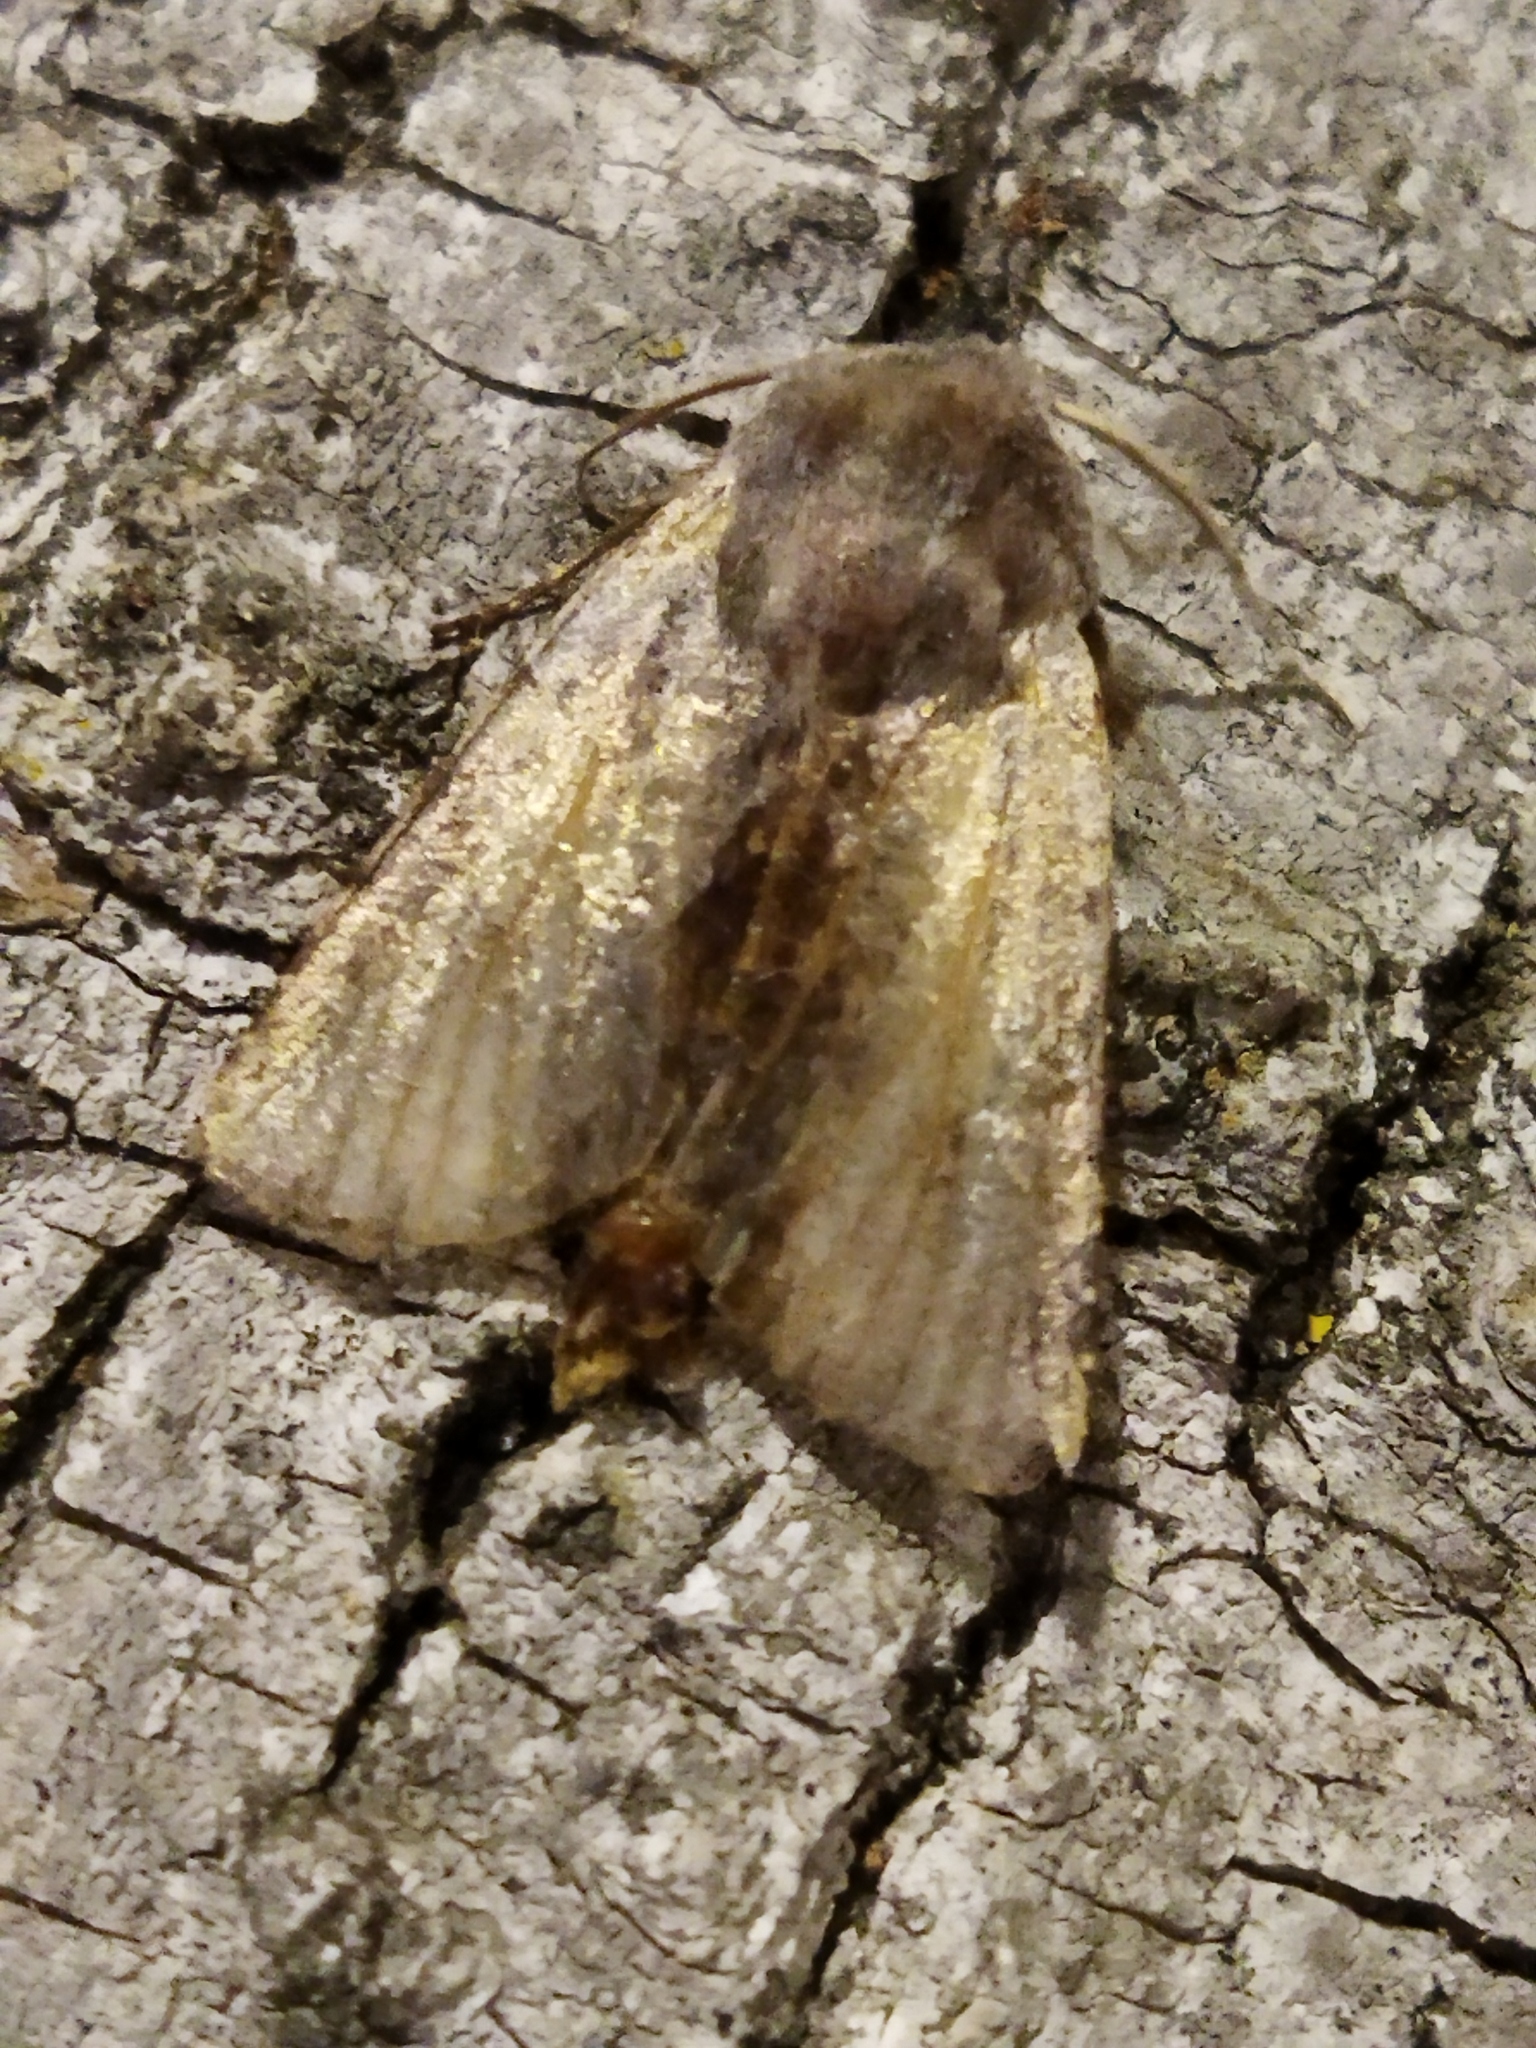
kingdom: Animalia
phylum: Arthropoda
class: Insecta
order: Lepidoptera
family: Noctuidae
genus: Cerastis
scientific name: Cerastis rubricosa
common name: Red chestnut
